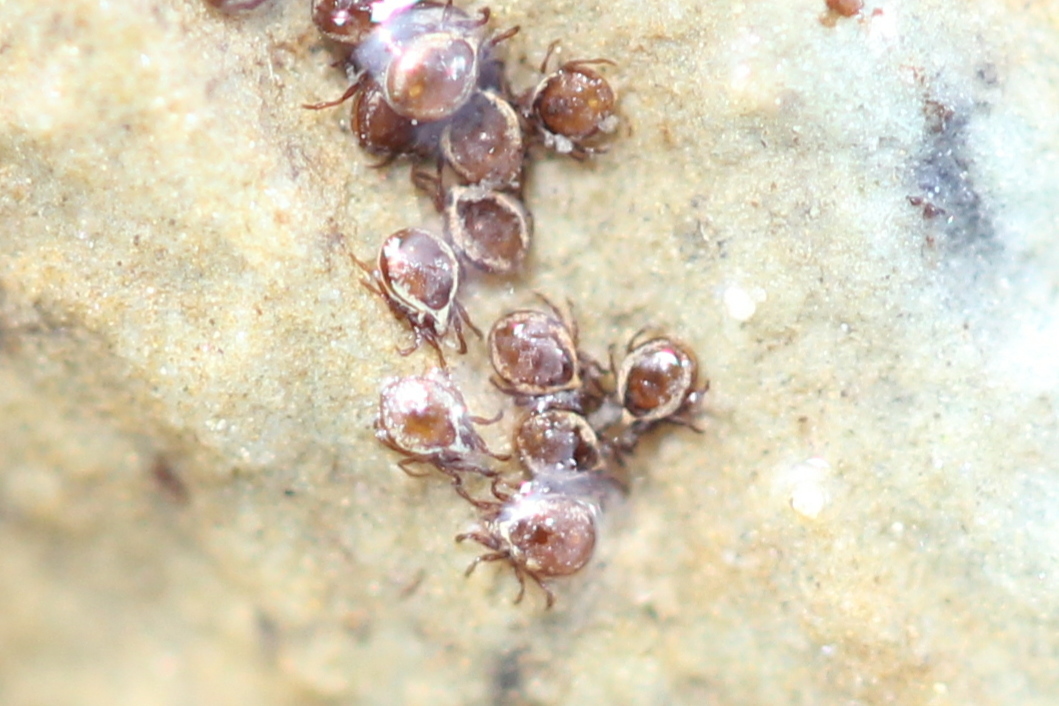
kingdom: Animalia
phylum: Arthropoda
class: Arachnida
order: Sarcoptiformes
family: Hydrozetidae
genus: Hydrozetes
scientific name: Hydrozetes
